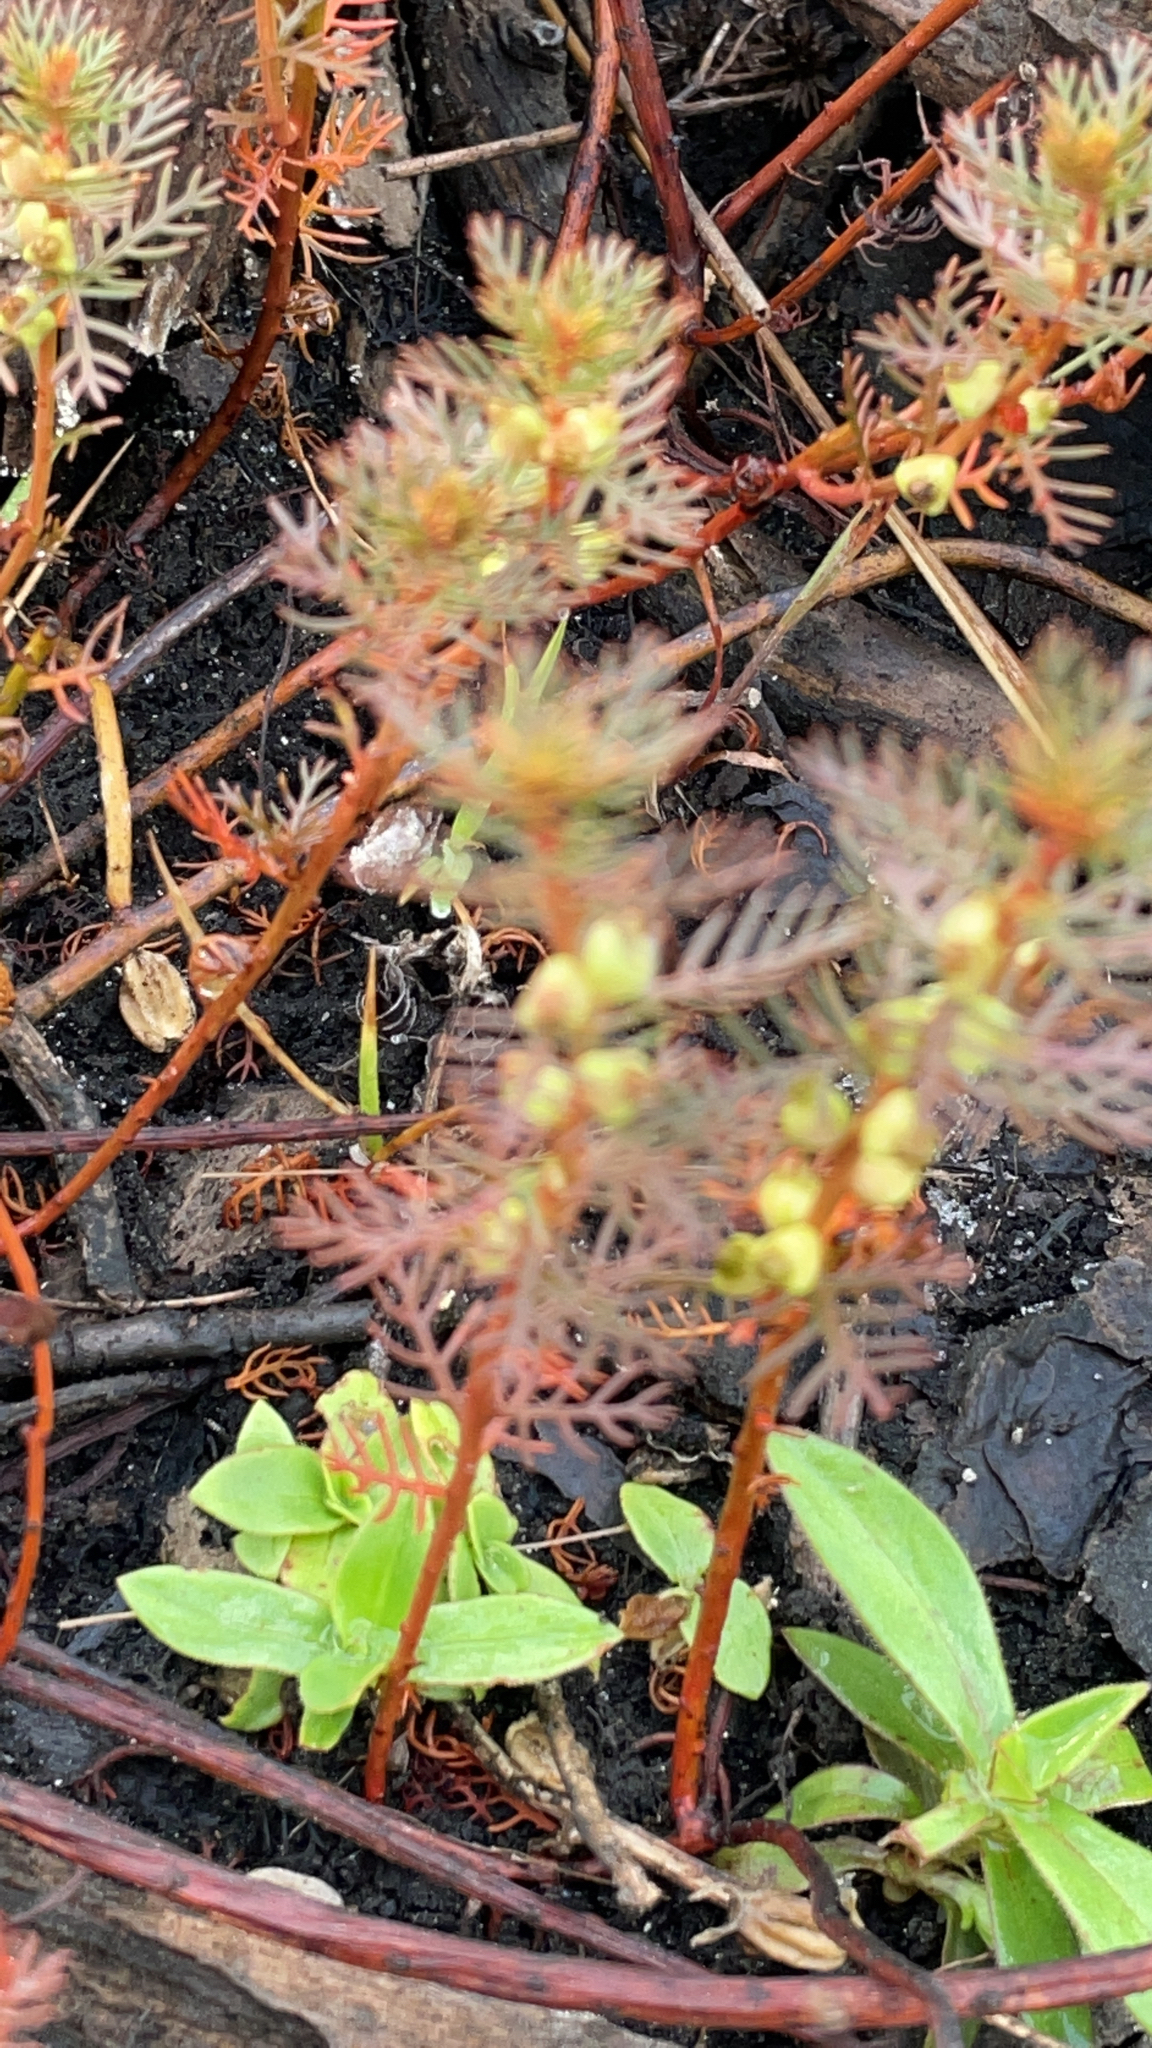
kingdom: Plantae
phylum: Tracheophyta
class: Magnoliopsida
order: Saxifragales
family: Haloragaceae
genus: Proserpinaca
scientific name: Proserpinaca pectinata
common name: Comb-leaved mermaidweed
